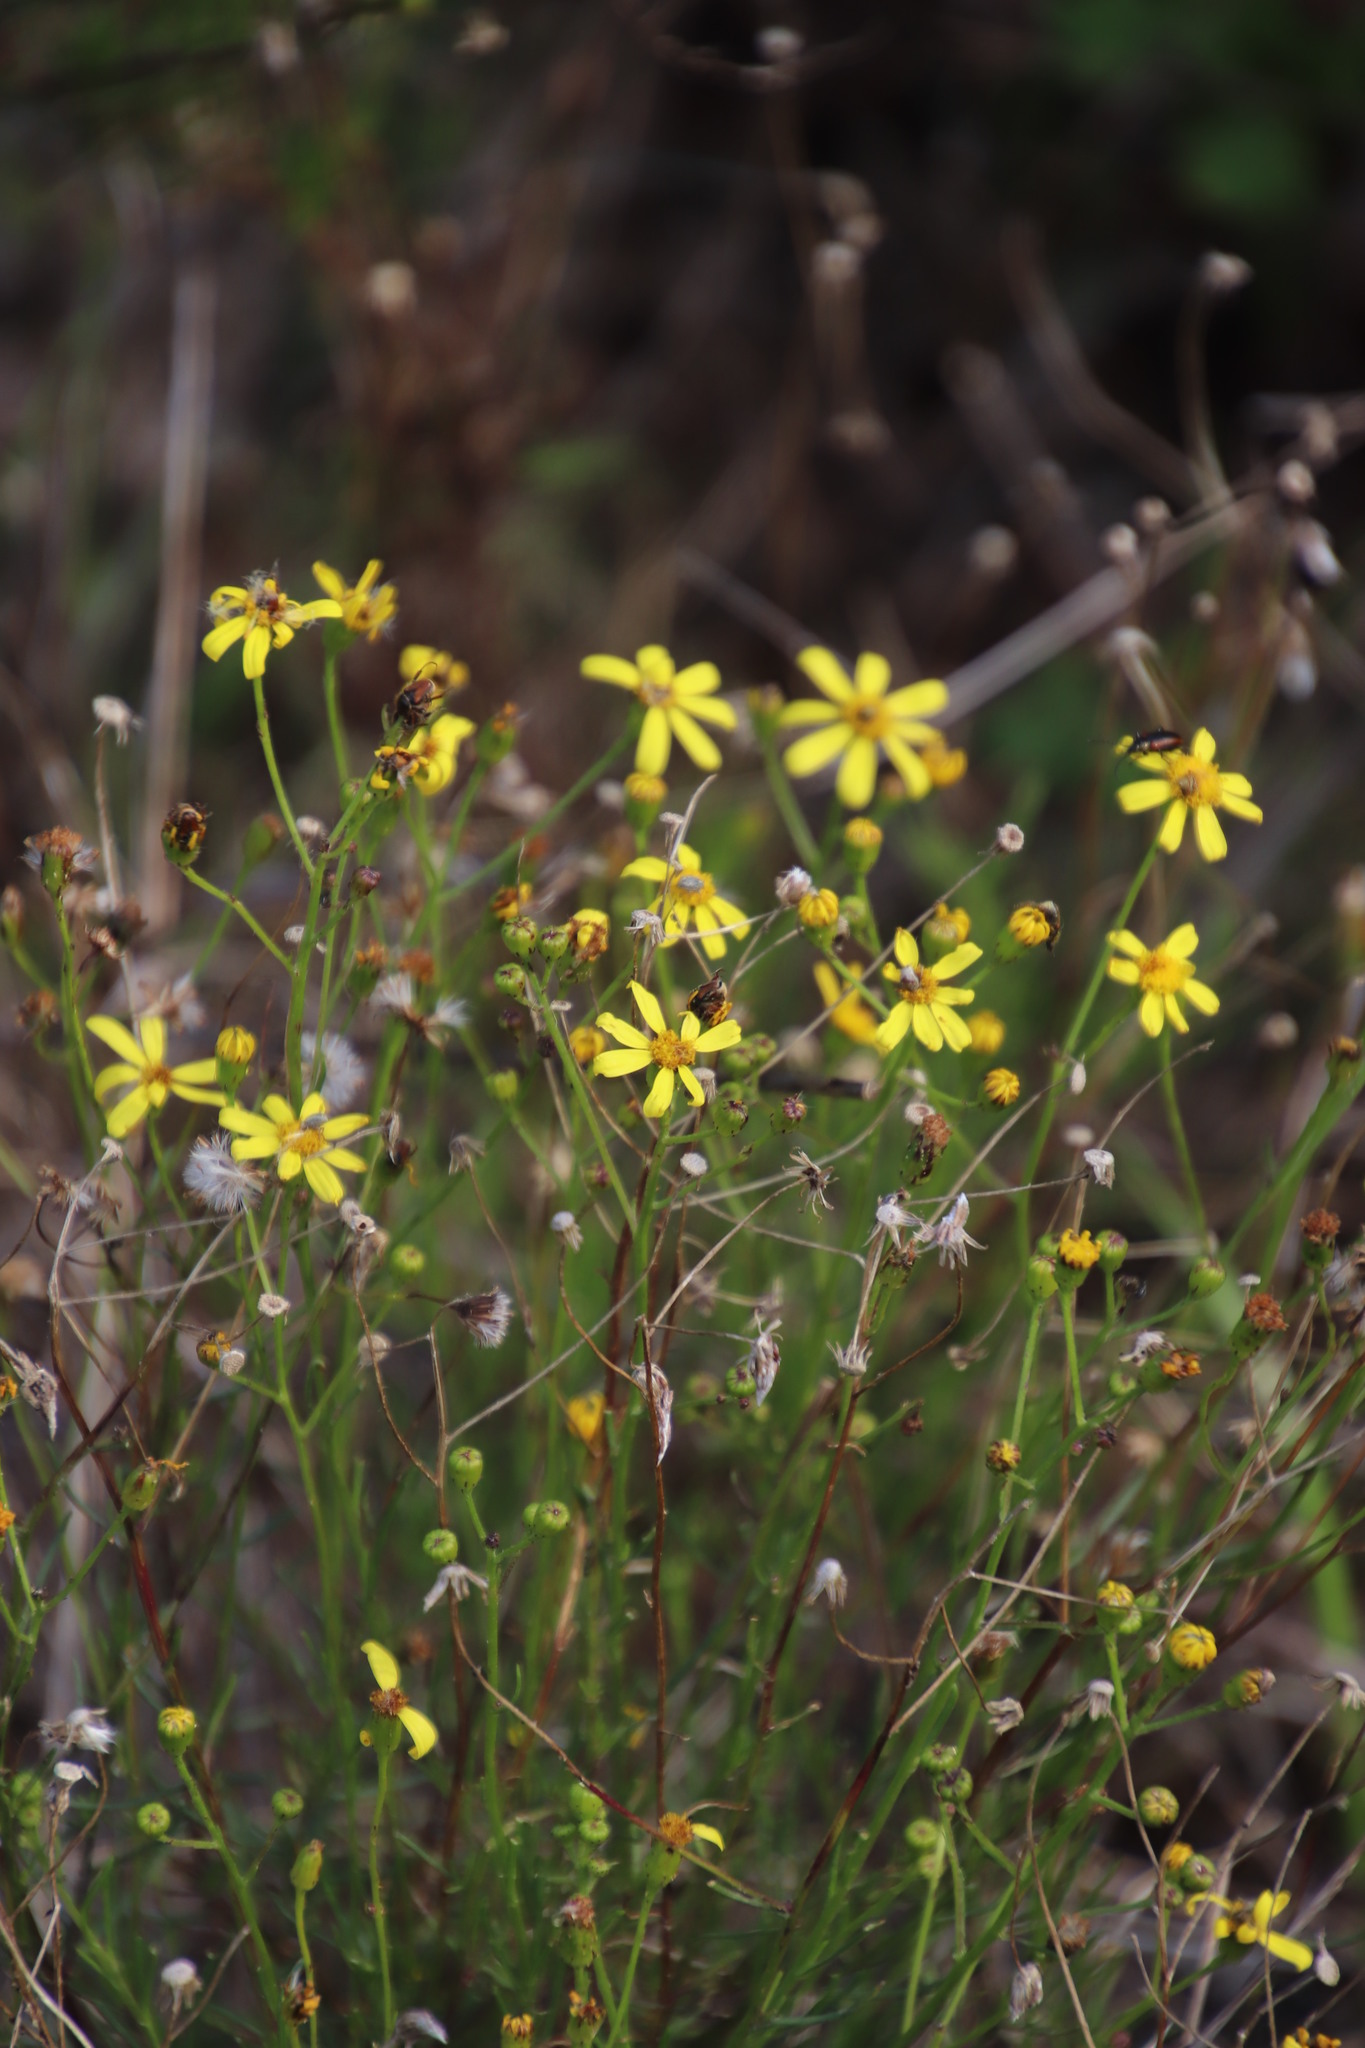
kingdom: Plantae
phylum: Tracheophyta
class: Magnoliopsida
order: Asterales
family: Asteraceae
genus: Senecio
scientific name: Senecio burchellii
